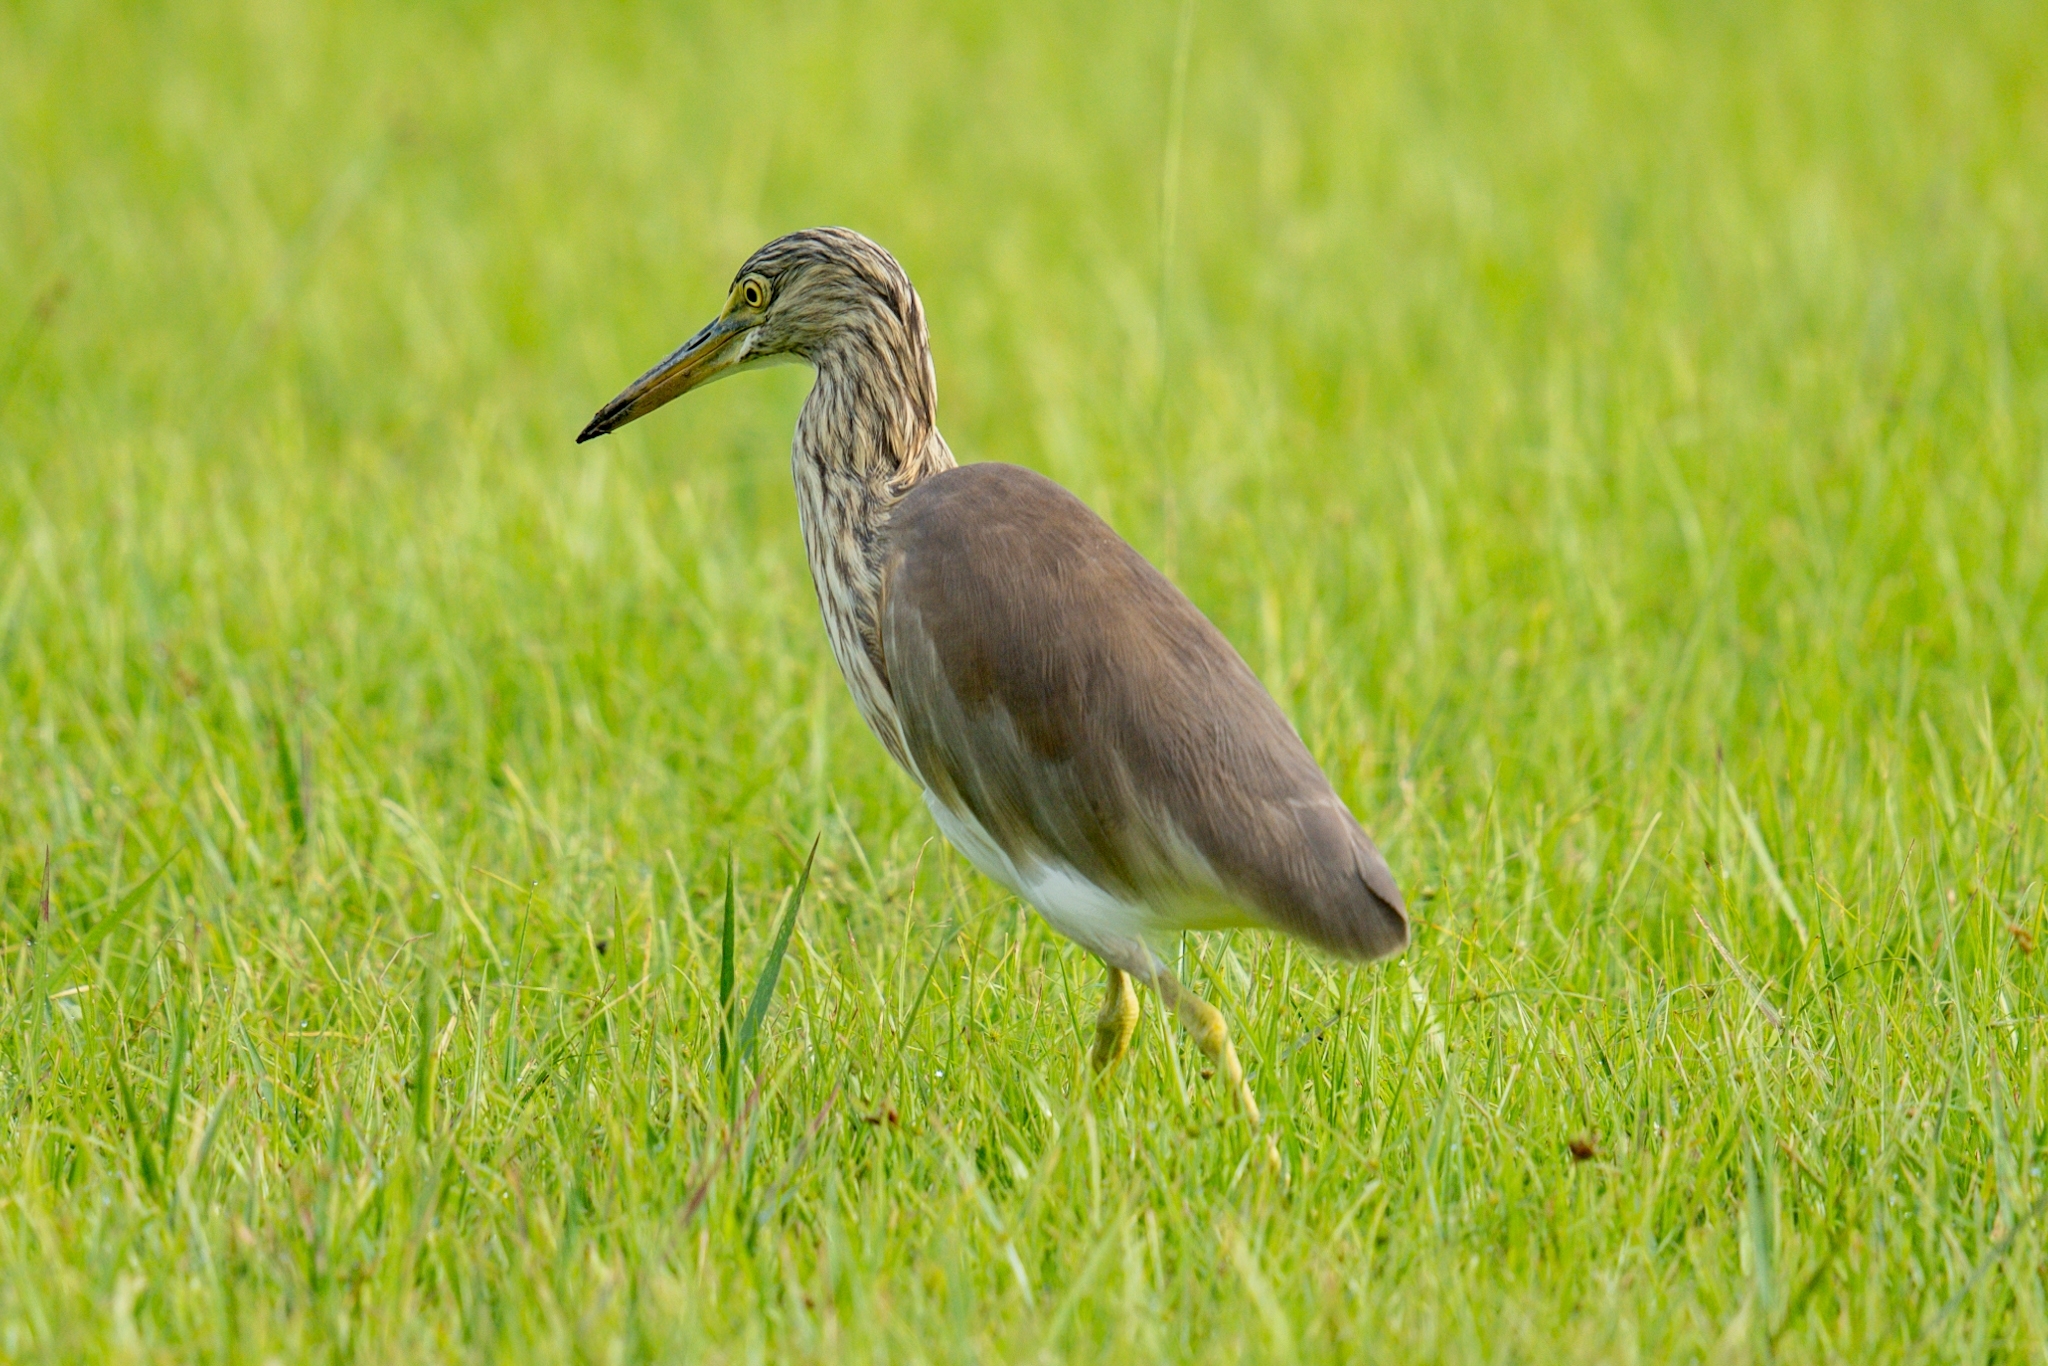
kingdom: Animalia
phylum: Chordata
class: Aves
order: Pelecaniformes
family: Ardeidae
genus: Ardeola
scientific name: Ardeola
